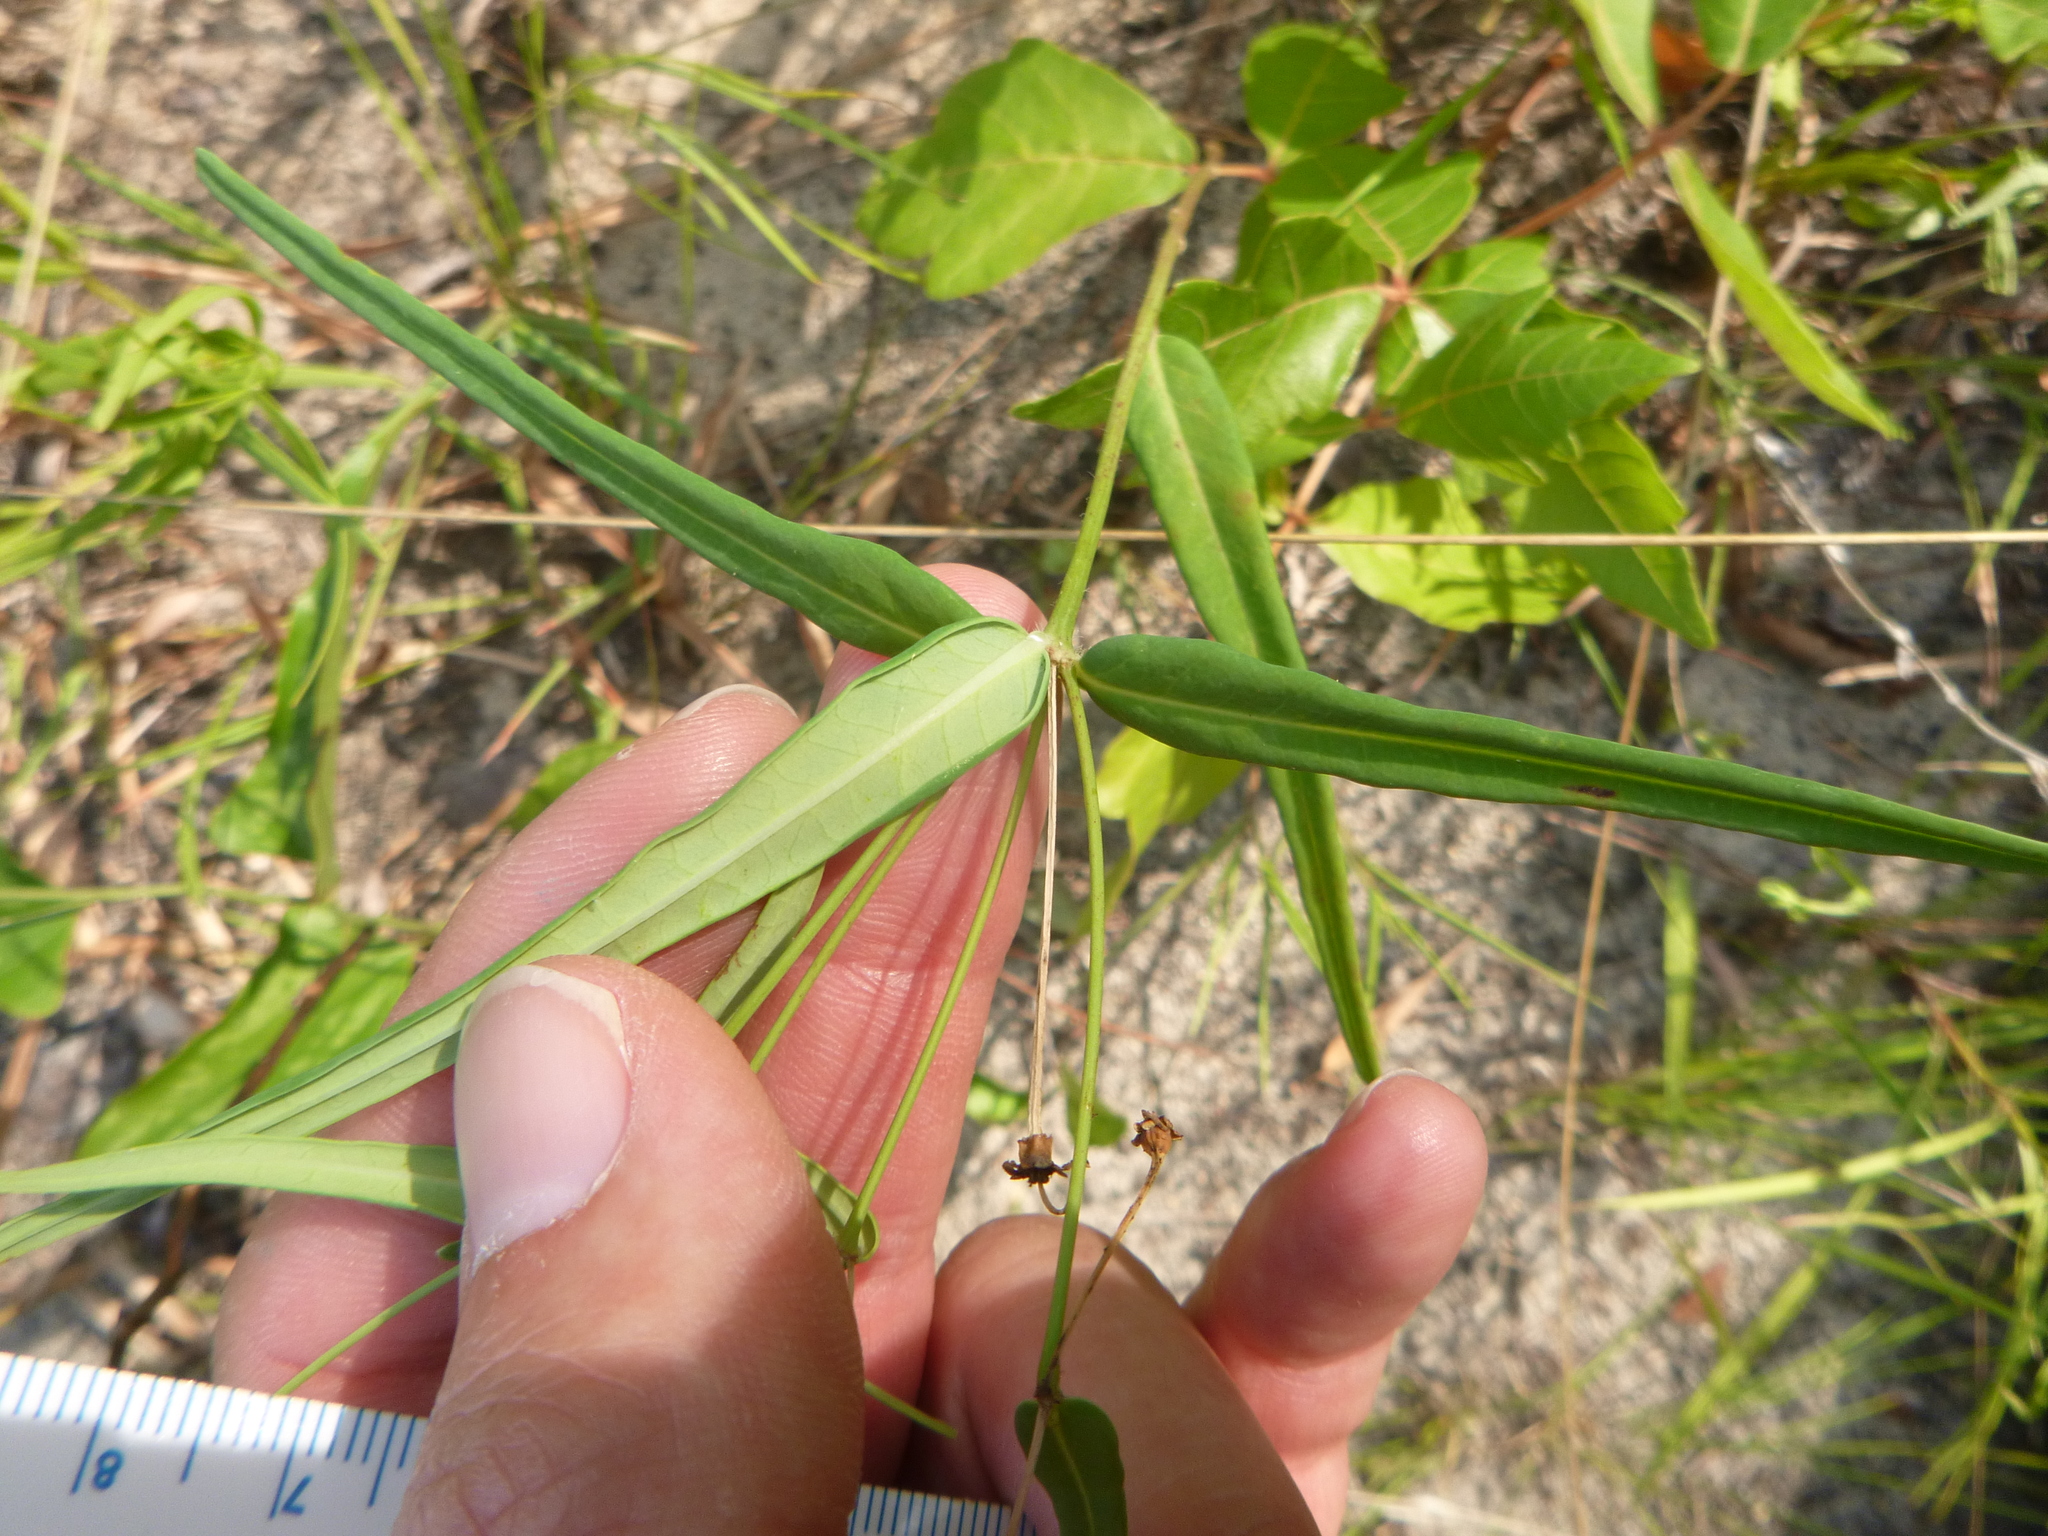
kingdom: Plantae
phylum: Tracheophyta
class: Magnoliopsida
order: Malpighiales
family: Euphorbiaceae
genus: Euphorbia
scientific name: Euphorbia discoidalis
